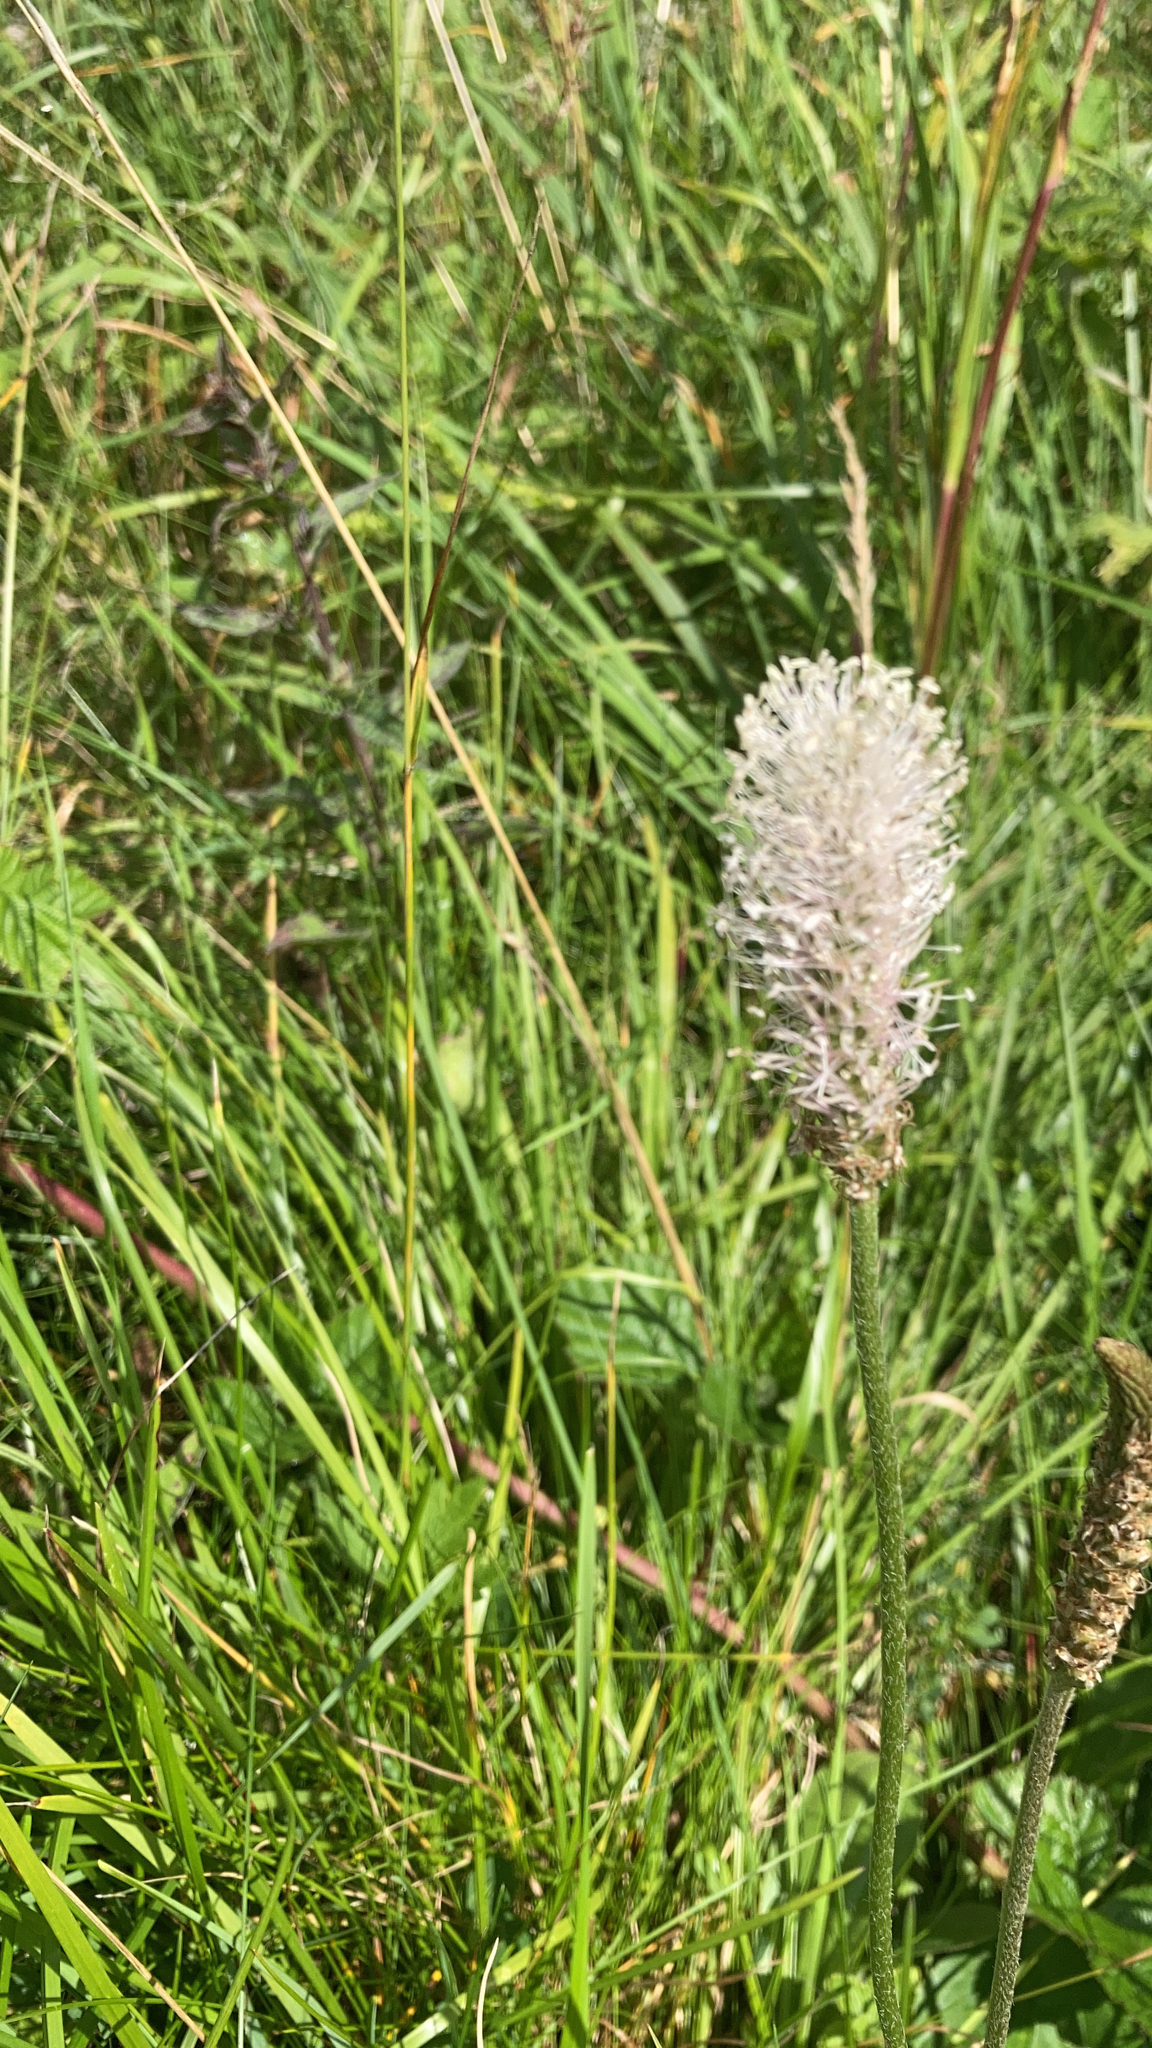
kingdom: Plantae
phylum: Tracheophyta
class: Magnoliopsida
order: Lamiales
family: Plantaginaceae
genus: Plantago
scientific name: Plantago media
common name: Hoary plantain
